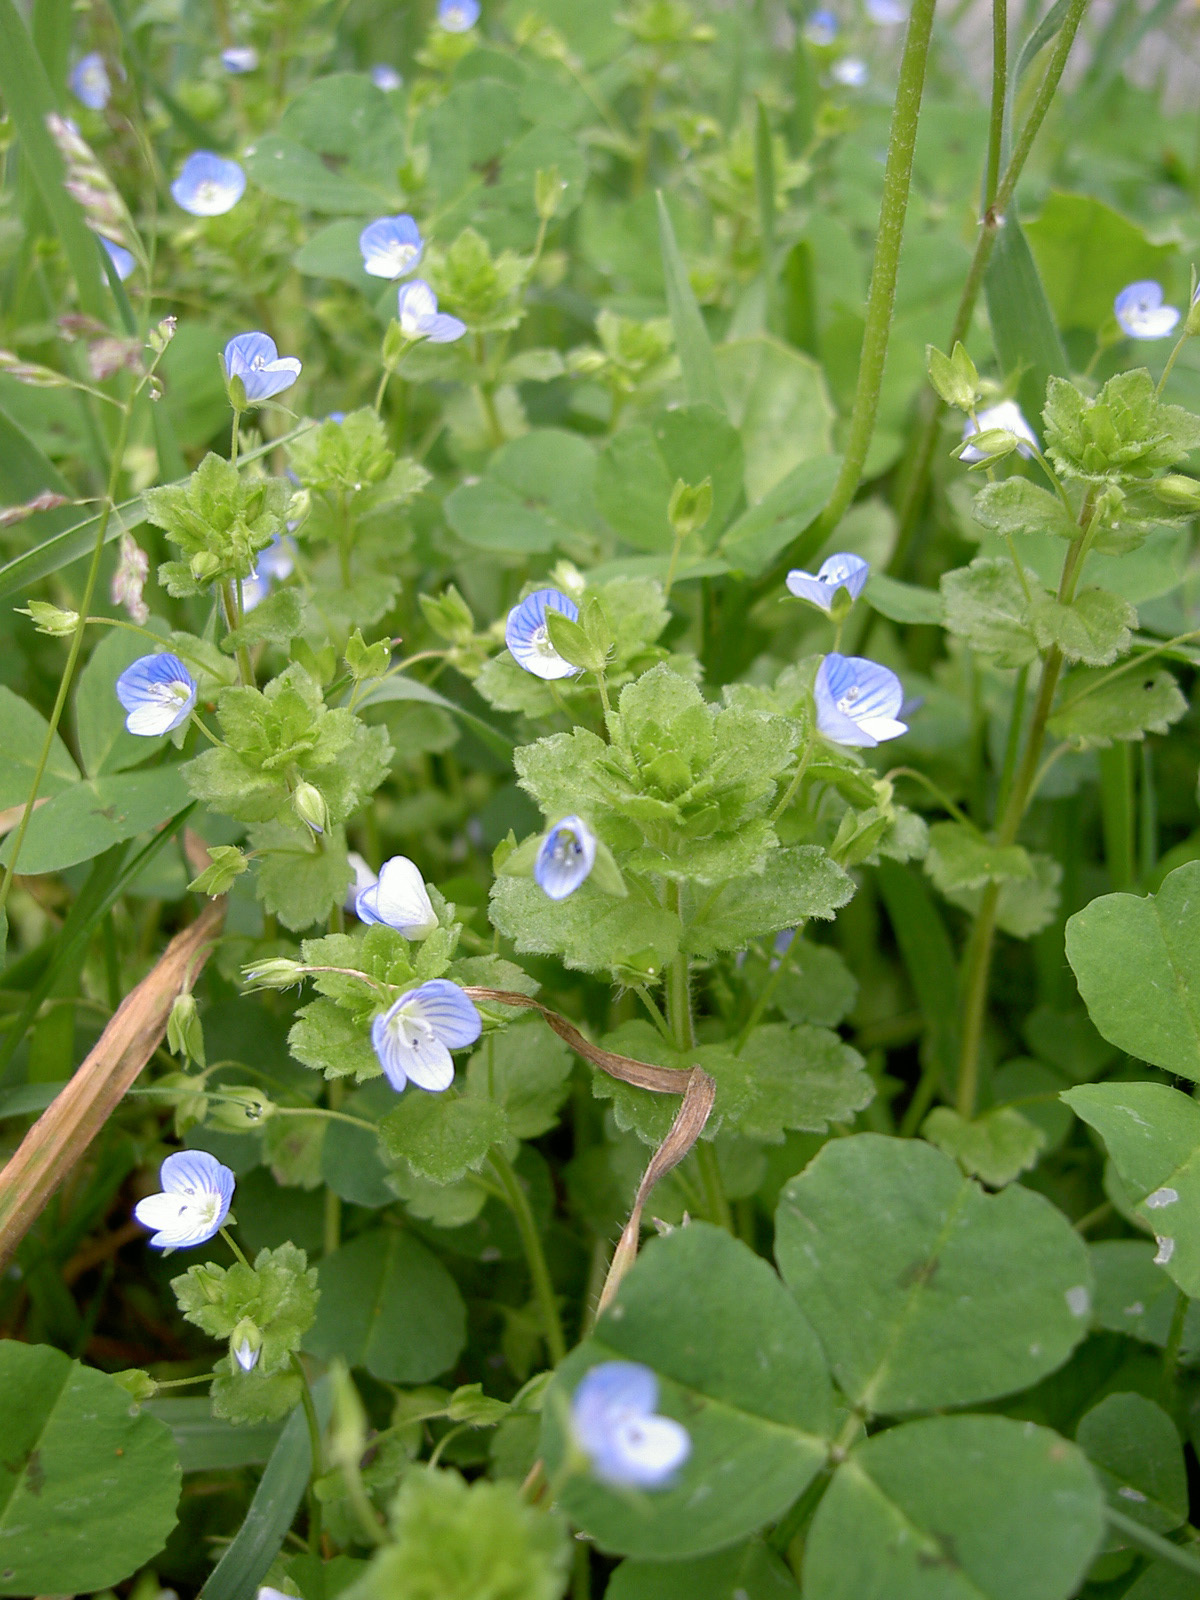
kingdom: Plantae
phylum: Tracheophyta
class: Magnoliopsida
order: Lamiales
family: Plantaginaceae
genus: Veronica
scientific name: Veronica persica
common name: Common field-speedwell
